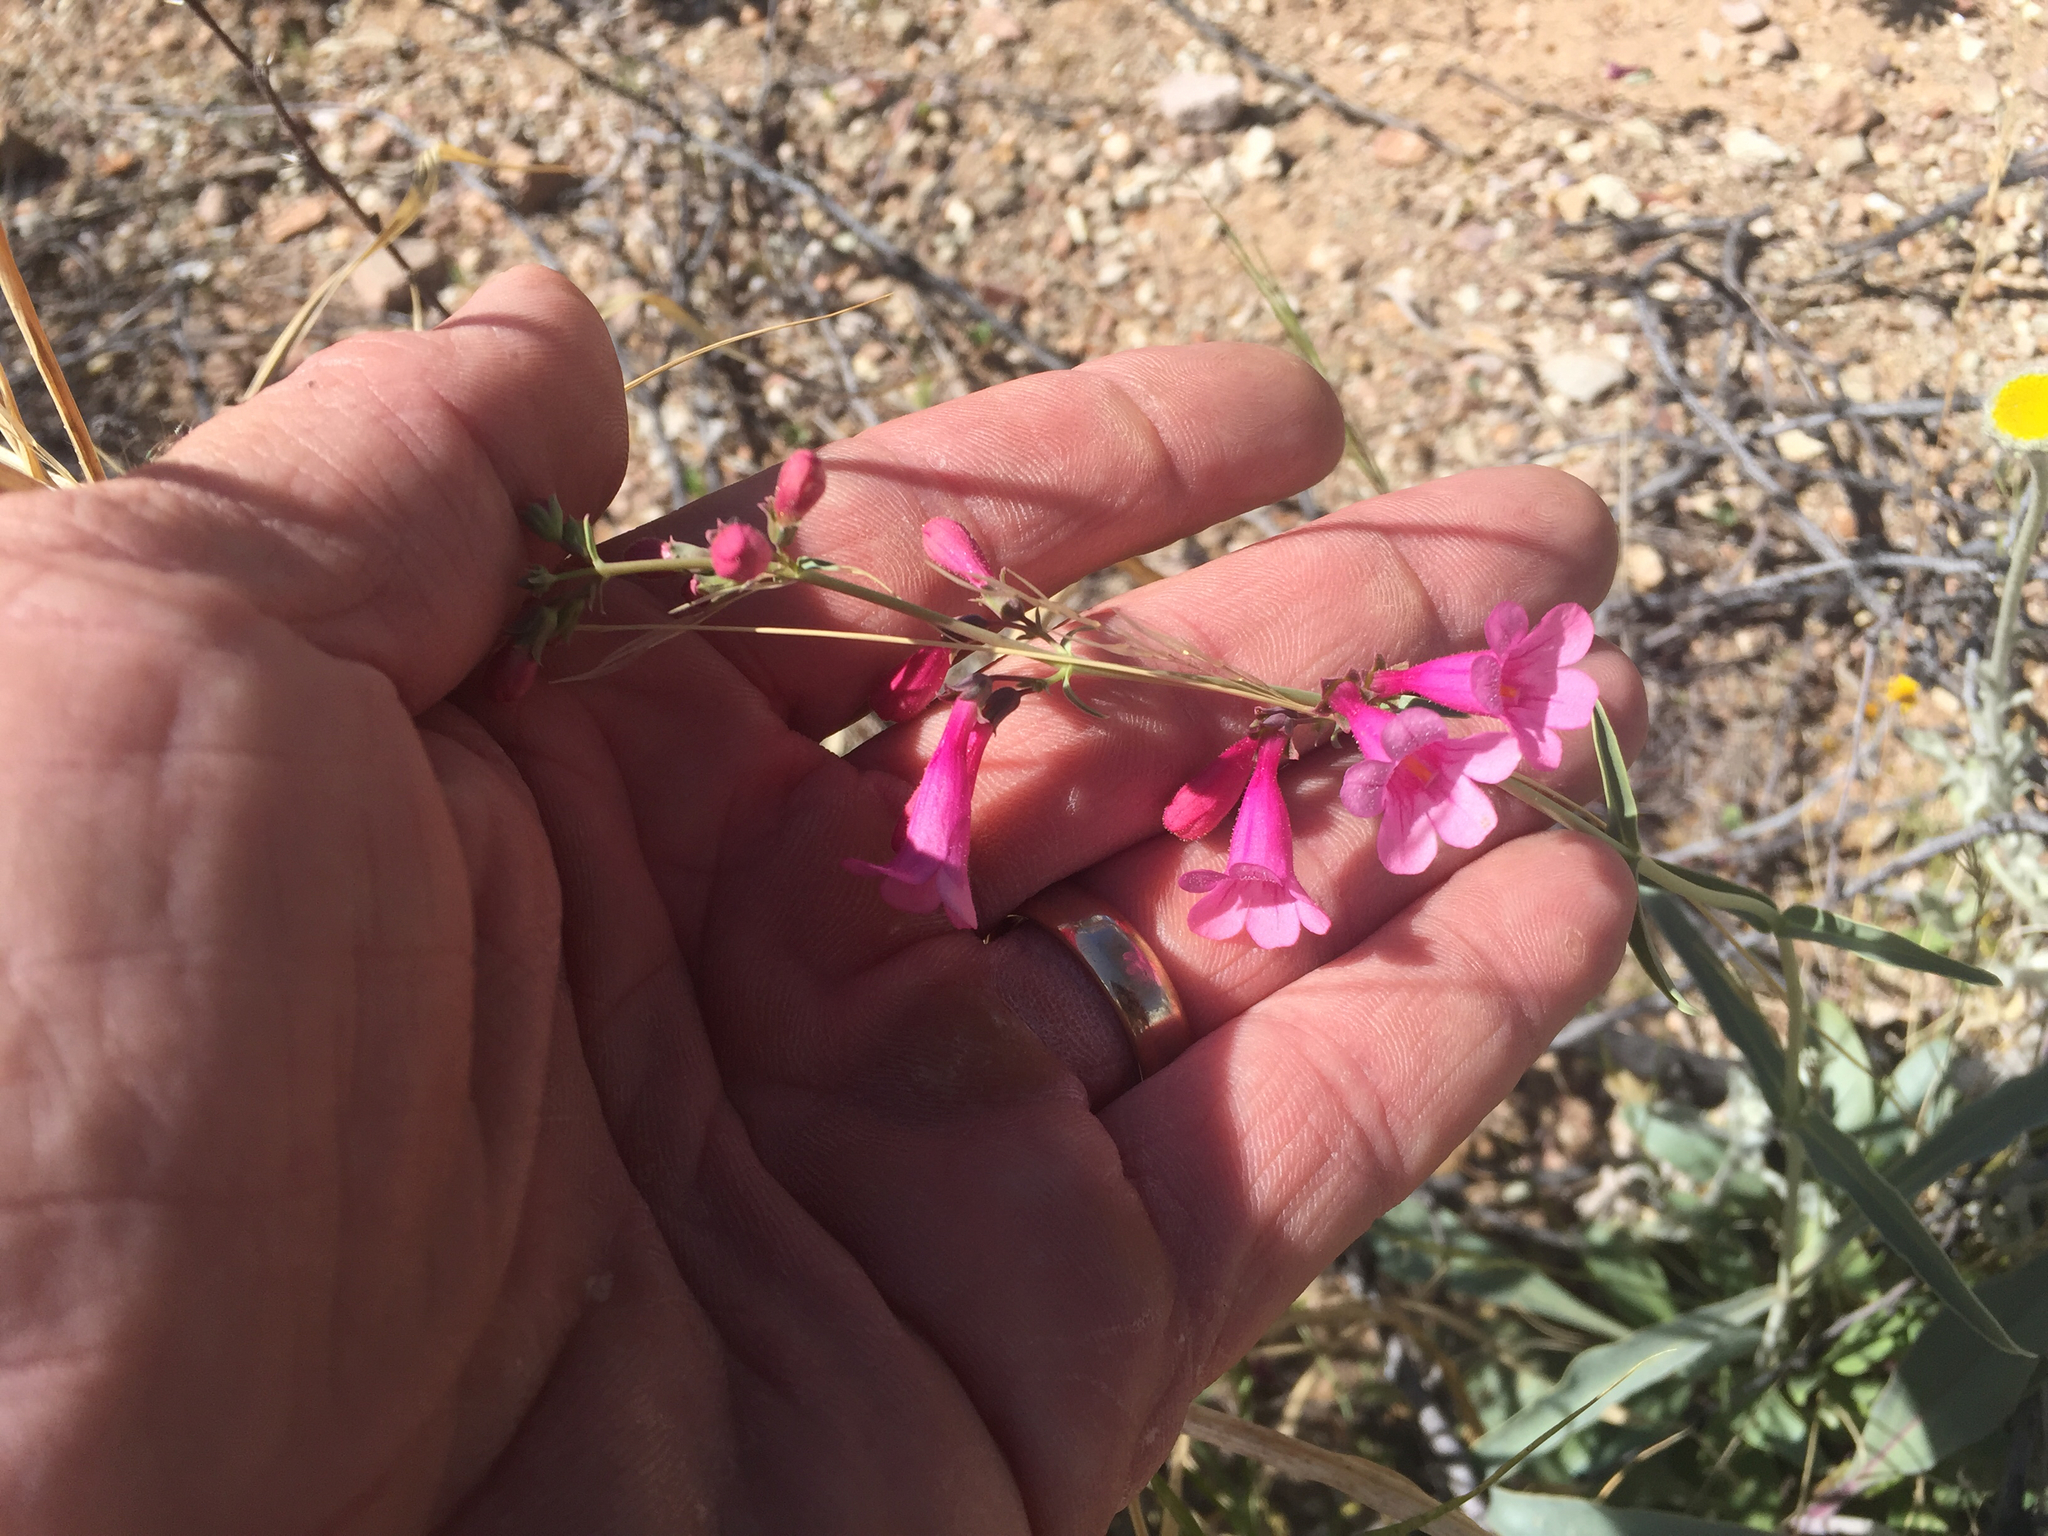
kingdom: Plantae
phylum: Tracheophyta
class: Magnoliopsida
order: Lamiales
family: Plantaginaceae
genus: Penstemon
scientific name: Penstemon parryi
